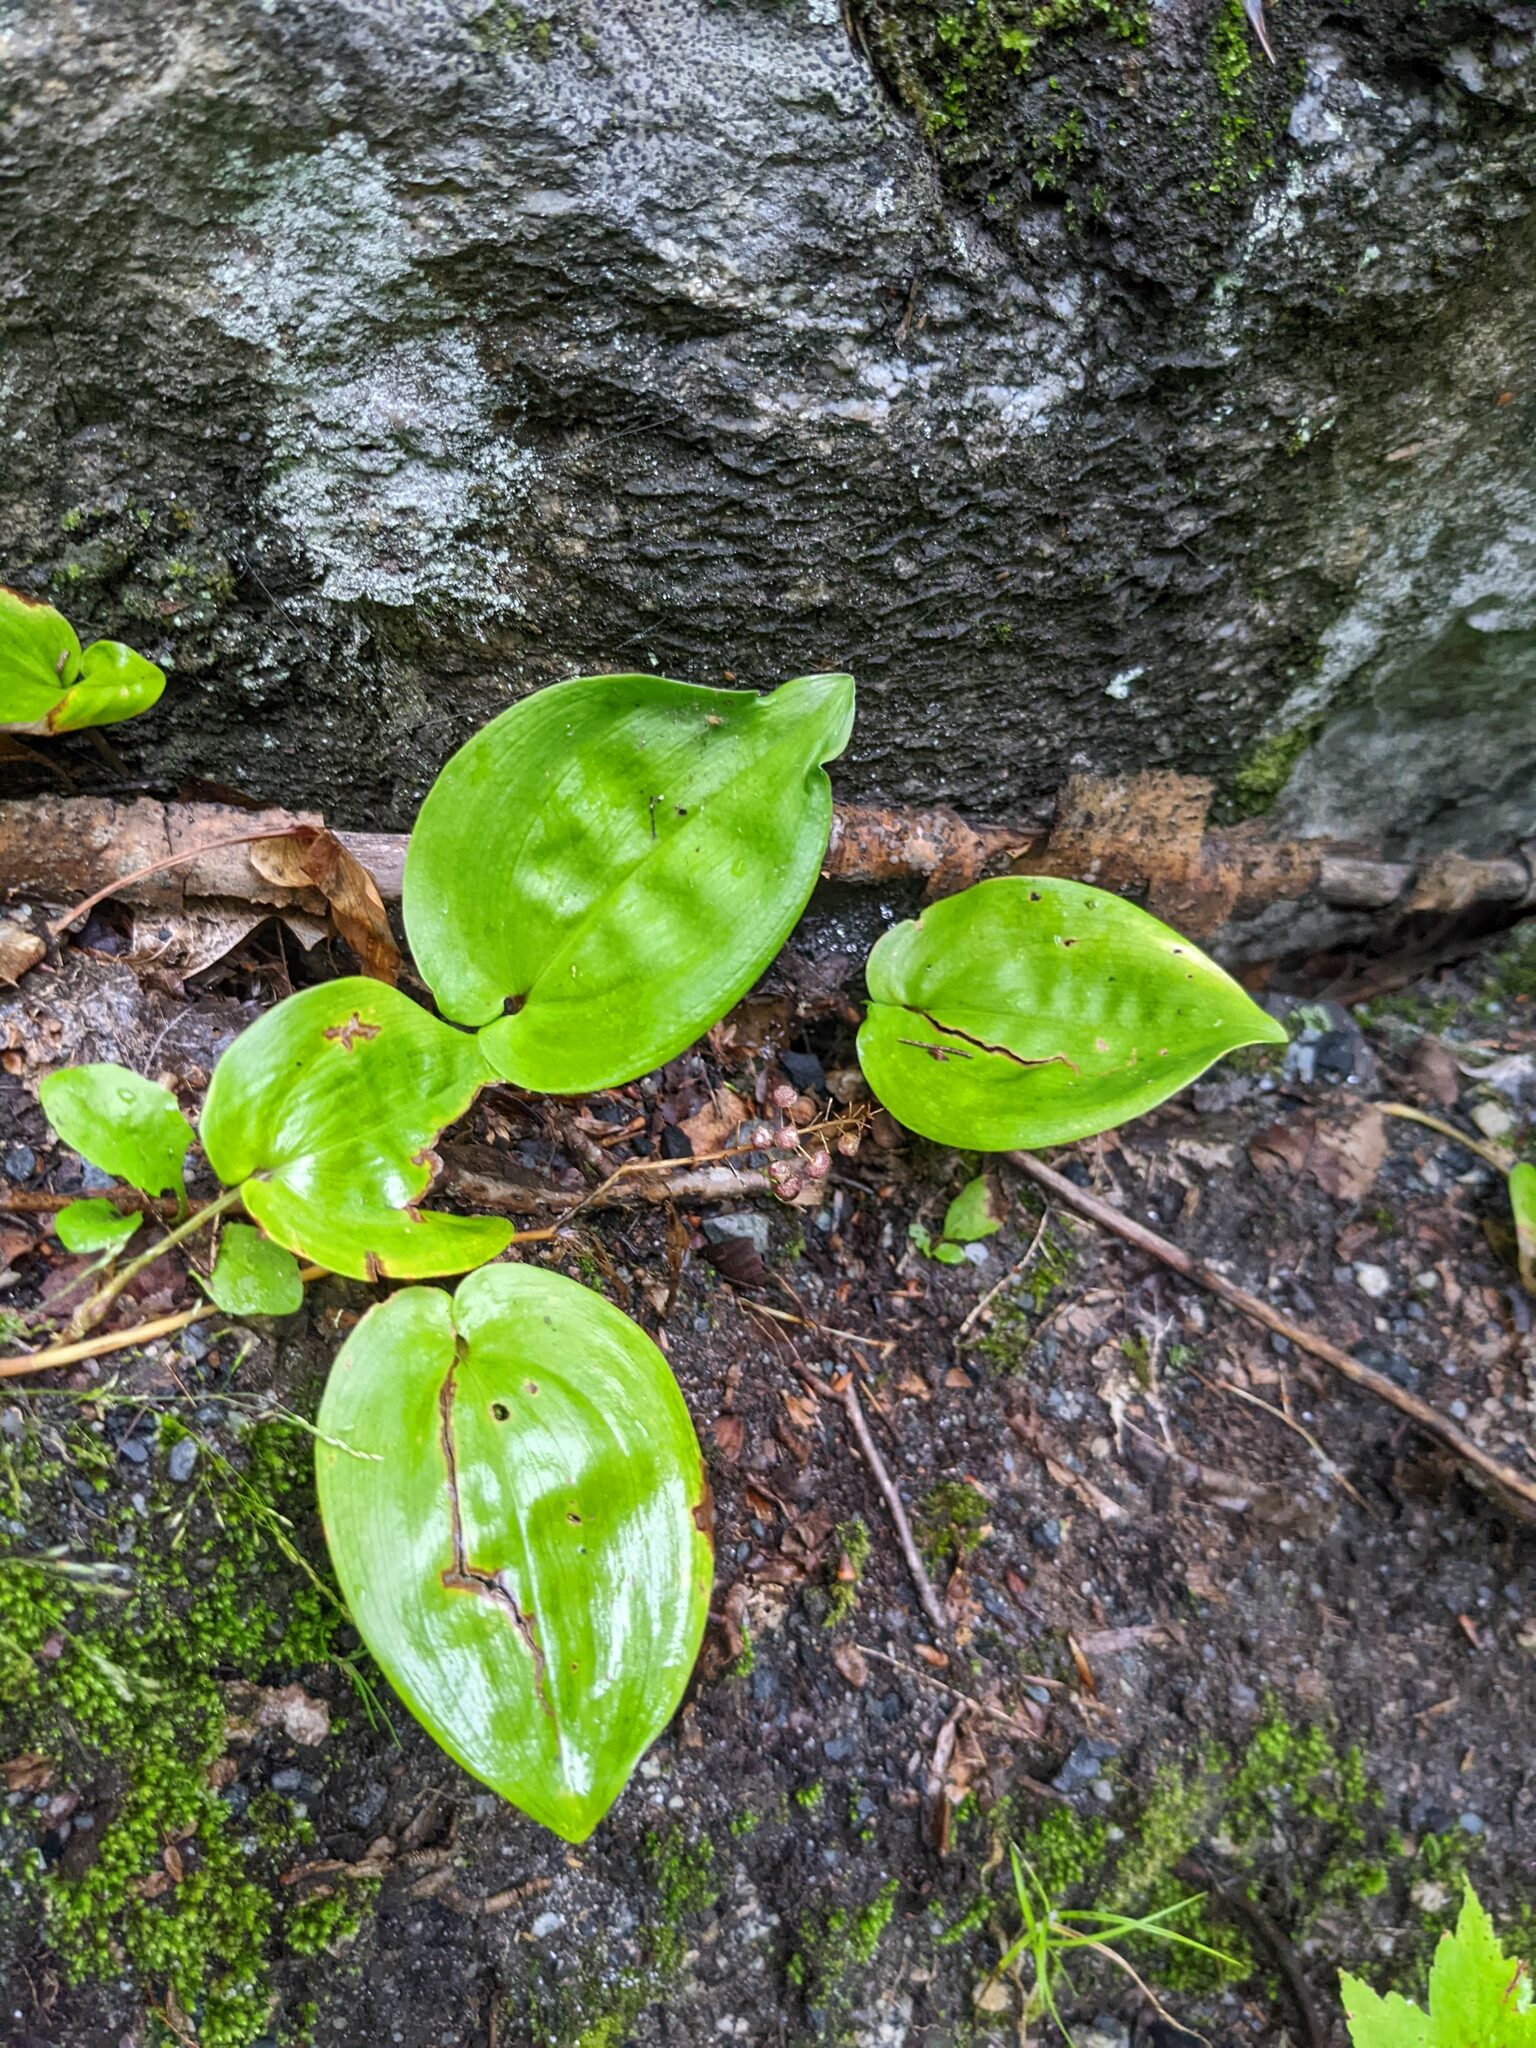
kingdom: Plantae
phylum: Tracheophyta
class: Liliopsida
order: Asparagales
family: Asparagaceae
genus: Maianthemum
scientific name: Maianthemum canadense
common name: False lily-of-the-valley
